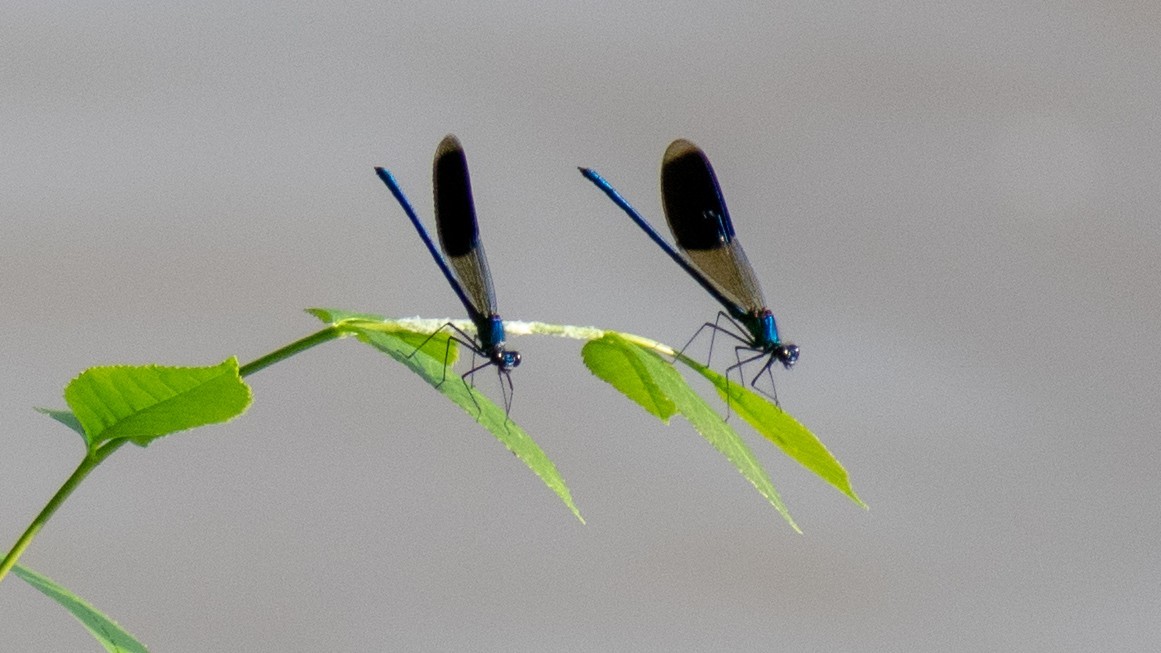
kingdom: Animalia
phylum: Arthropoda
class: Insecta
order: Odonata
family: Calopterygidae
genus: Calopteryx
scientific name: Calopteryx splendens
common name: Banded demoiselle
